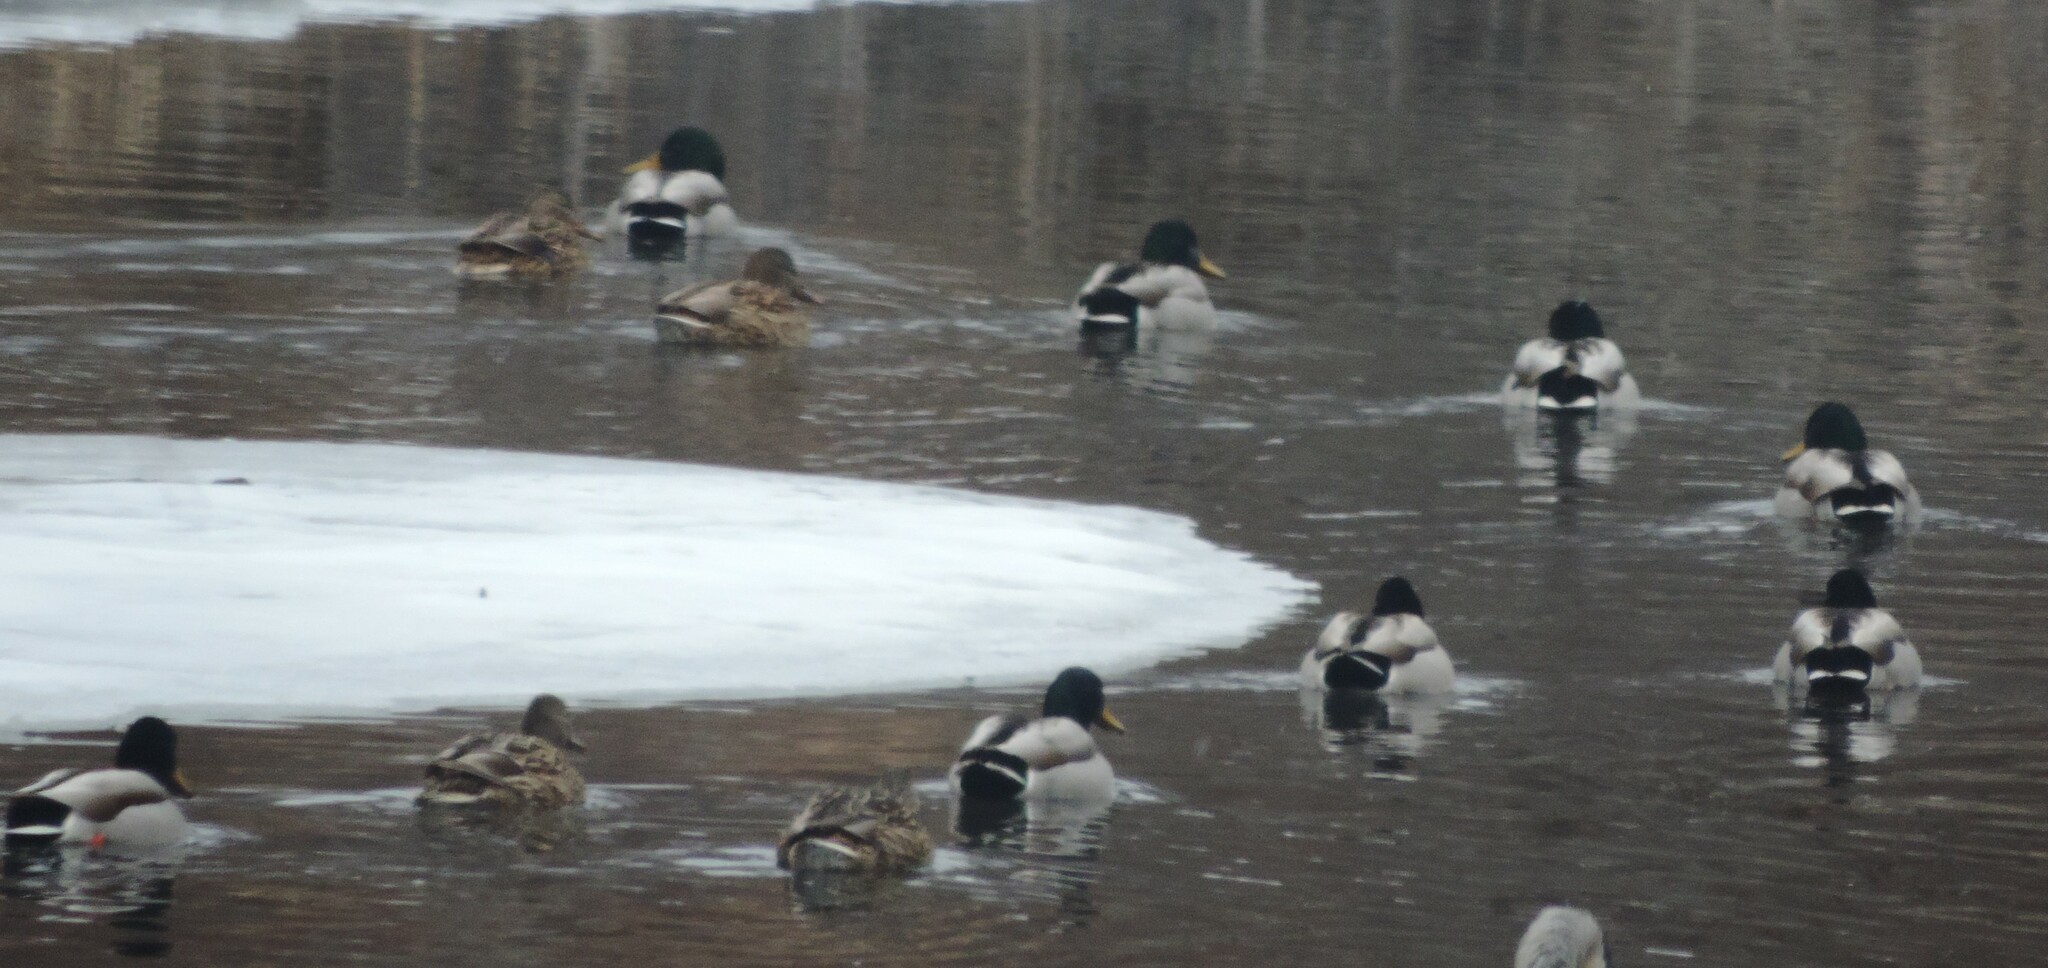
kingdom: Animalia
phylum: Chordata
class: Aves
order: Anseriformes
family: Anatidae
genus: Anas
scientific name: Anas platyrhynchos
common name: Mallard
